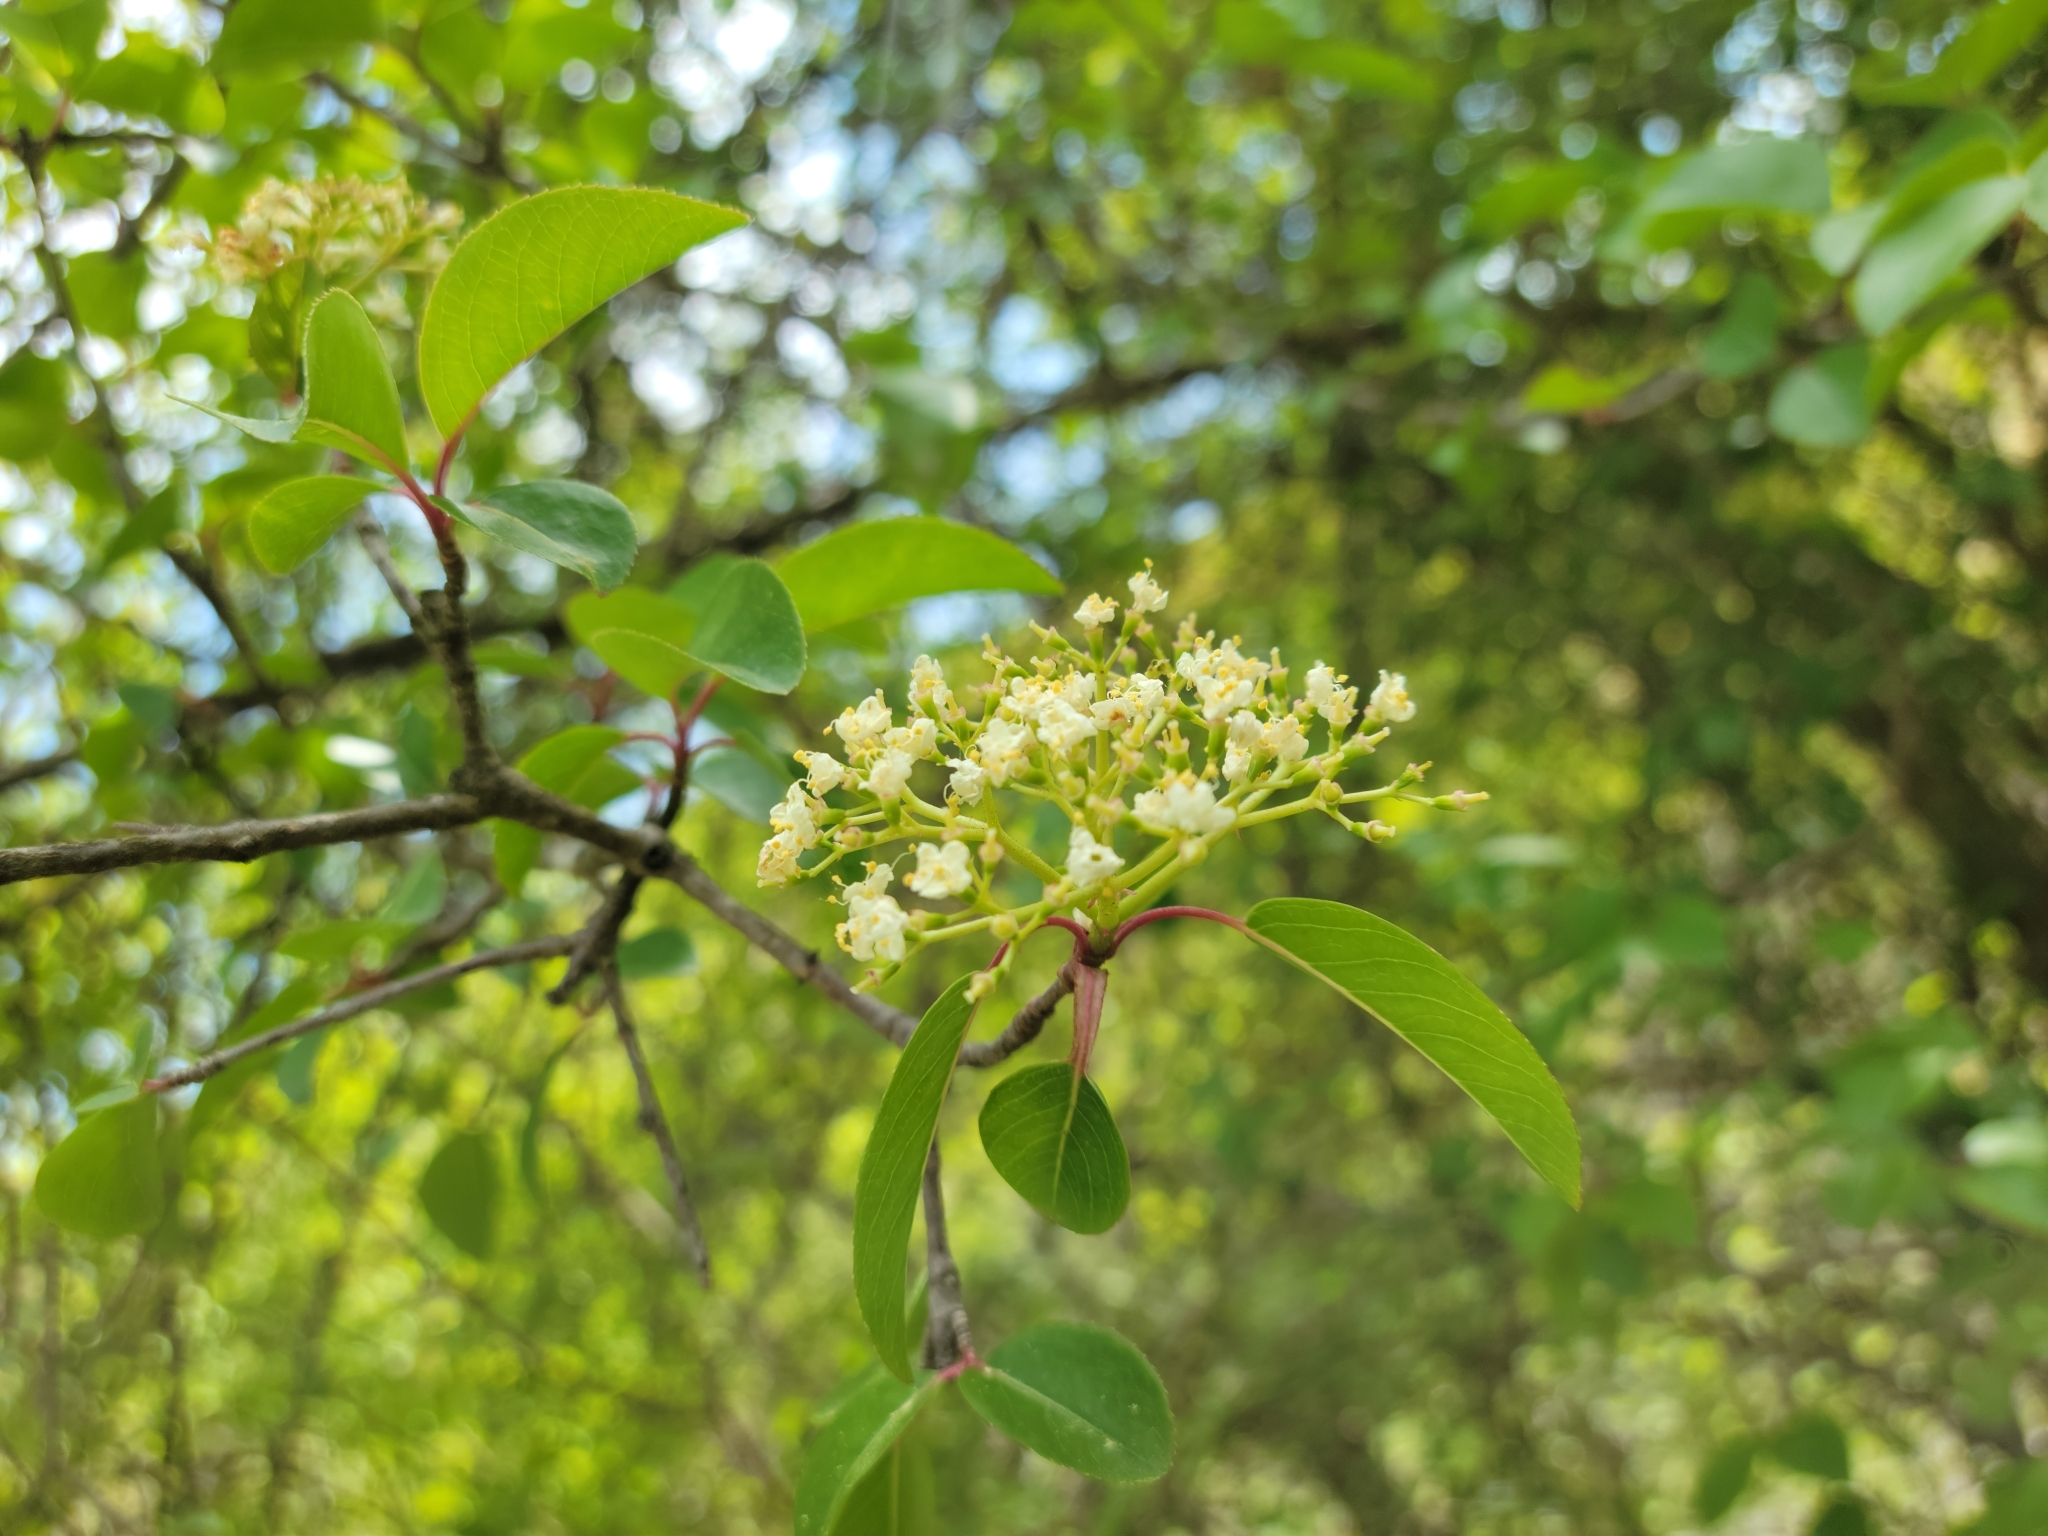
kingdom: Plantae
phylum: Tracheophyta
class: Magnoliopsida
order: Dipsacales
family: Viburnaceae
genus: Viburnum
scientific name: Viburnum prunifolium
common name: Black haw
